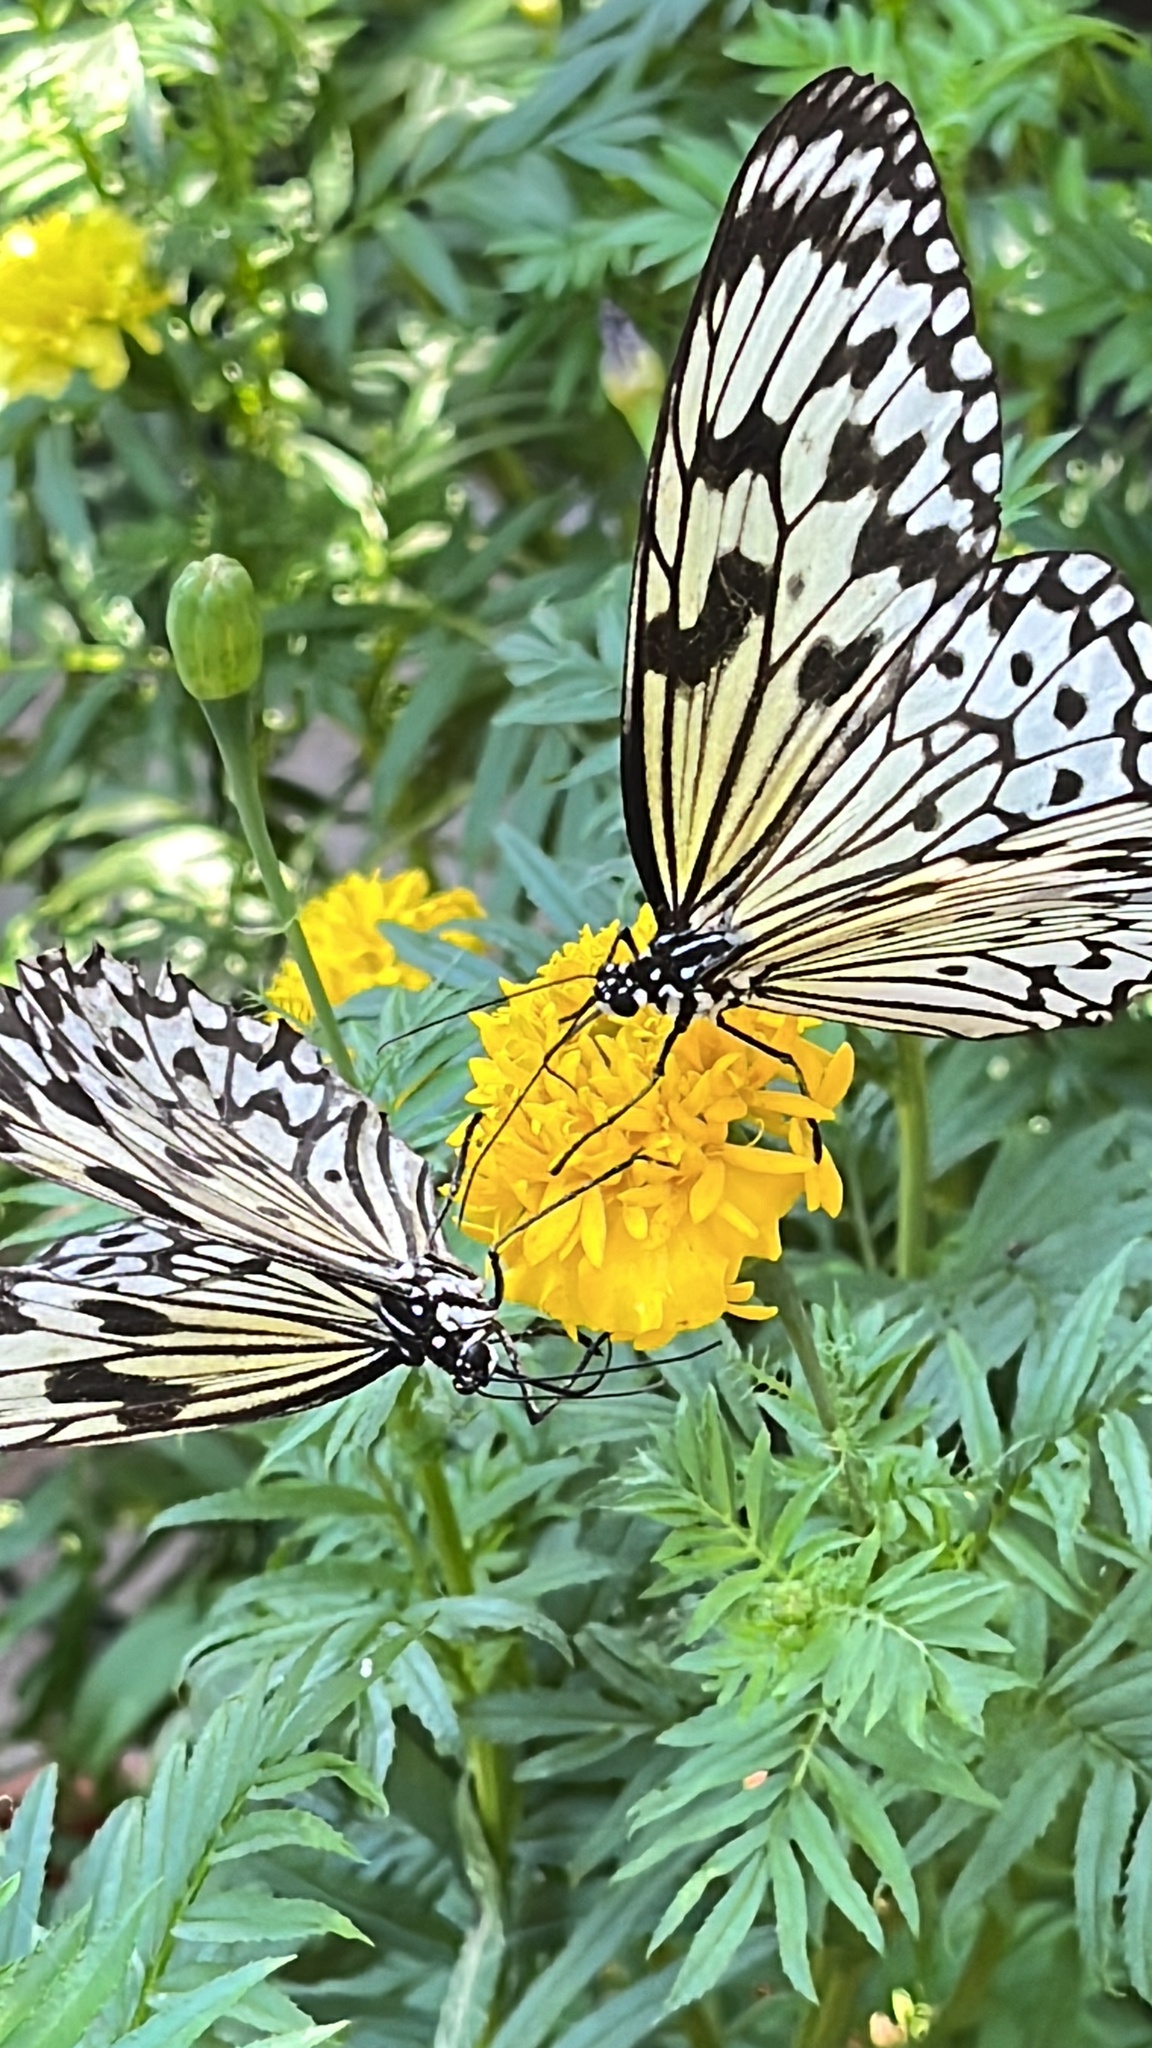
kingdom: Animalia
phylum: Arthropoda
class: Insecta
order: Lepidoptera
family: Nymphalidae
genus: Idea
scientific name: Idea leuconoe
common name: Rice paper butterfly
